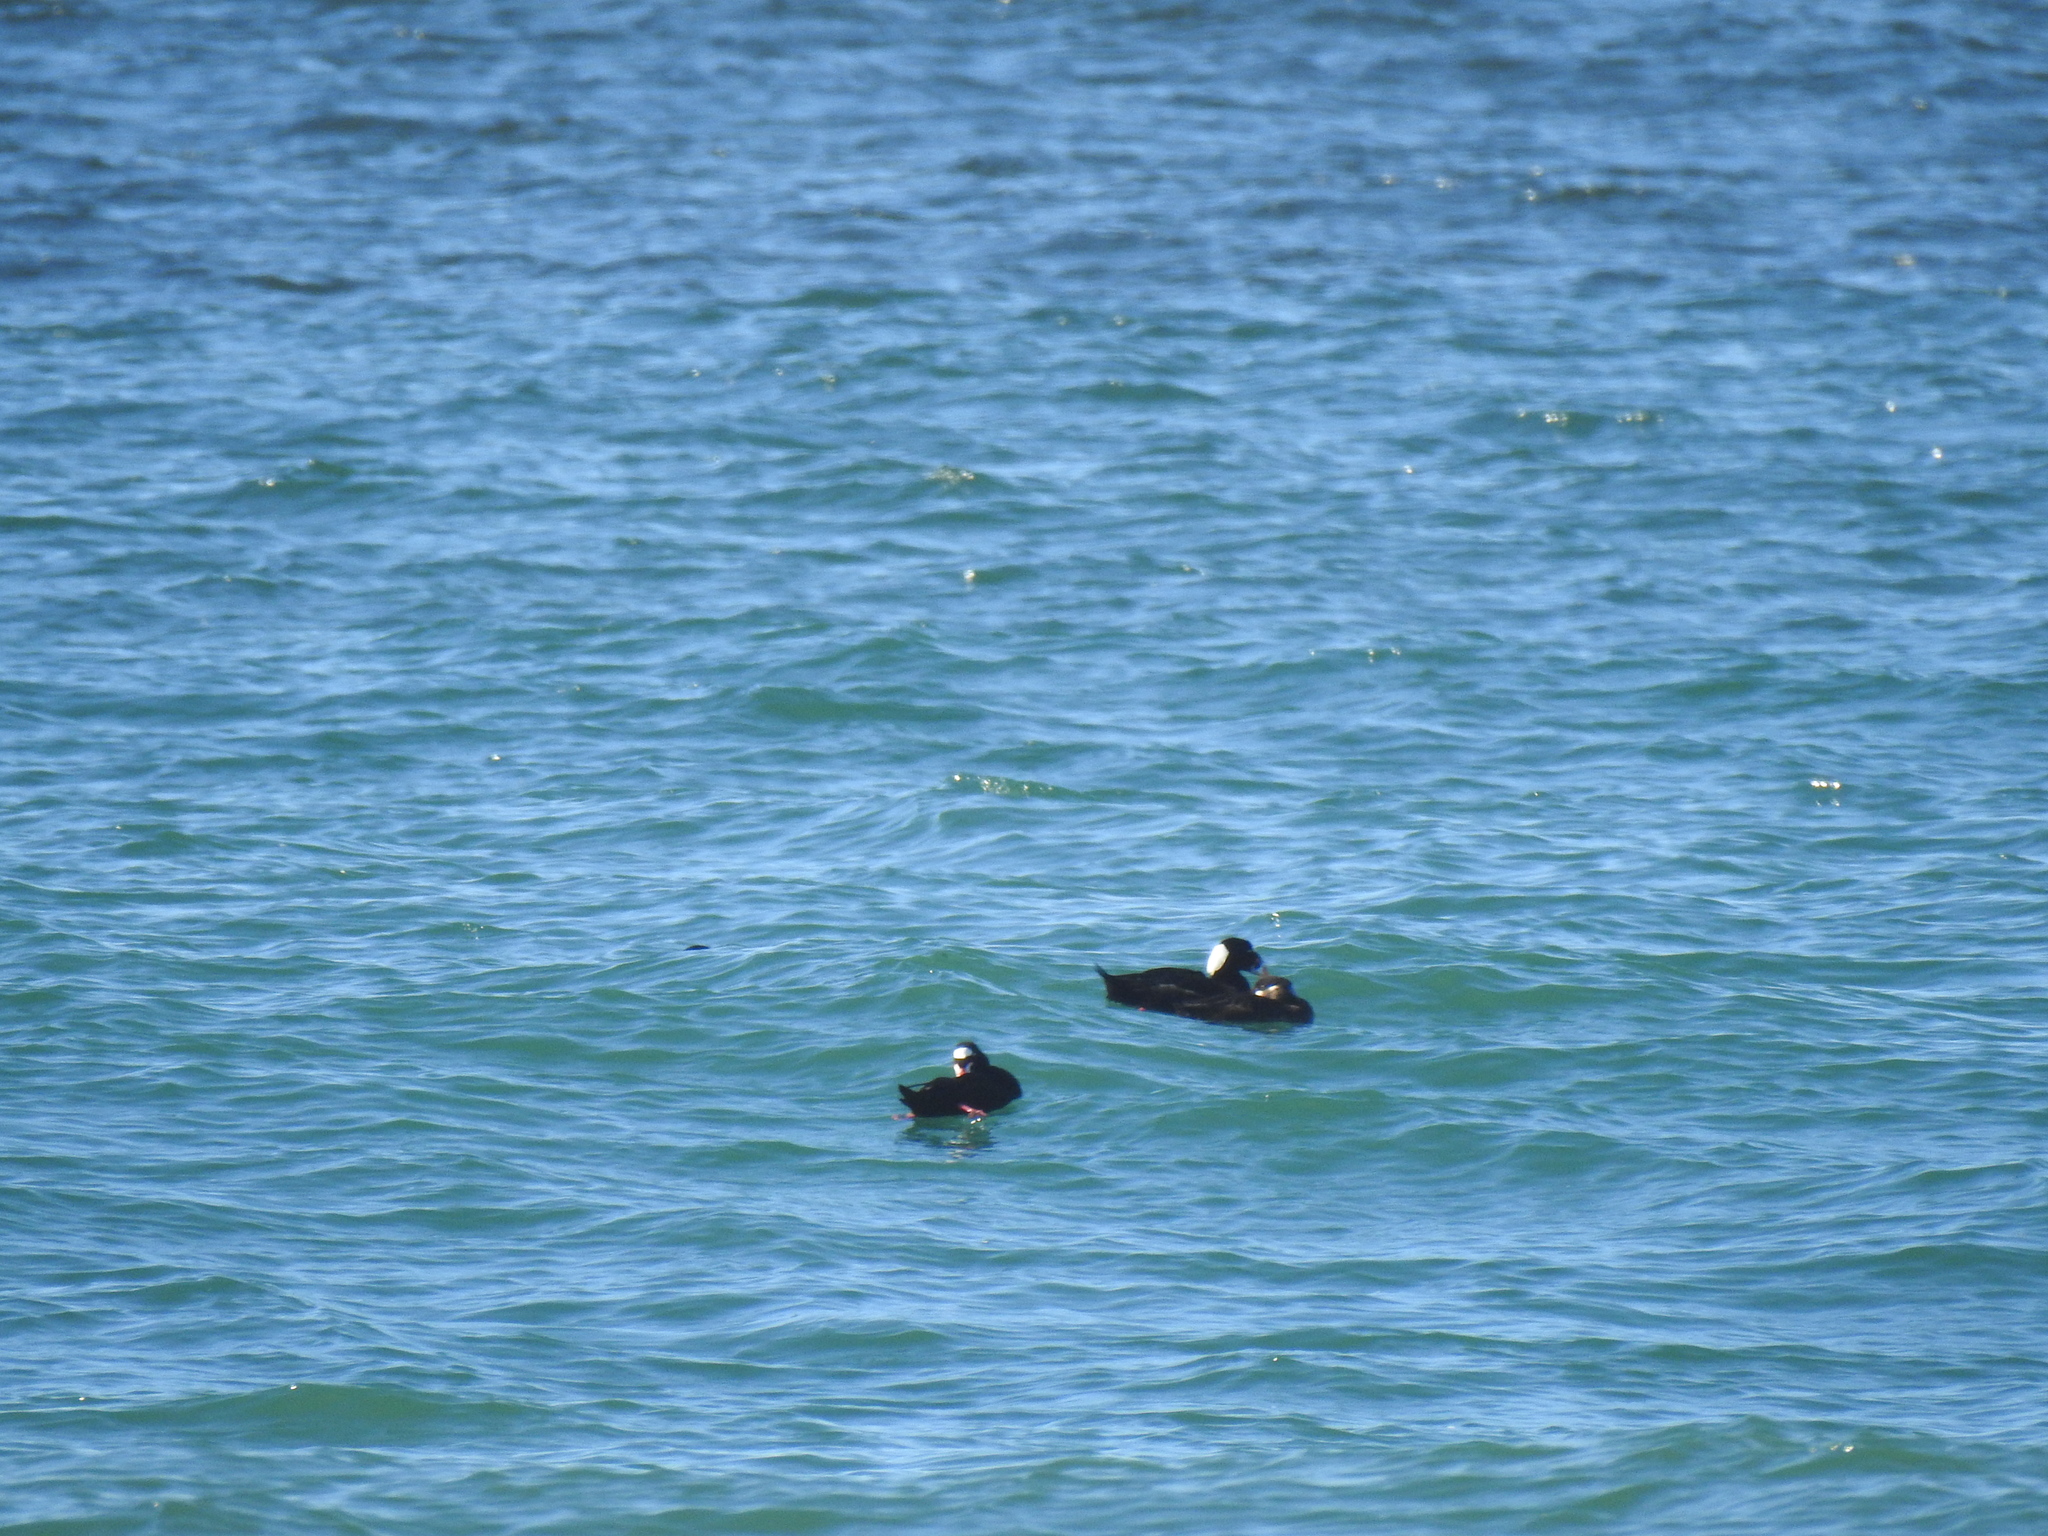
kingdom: Animalia
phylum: Chordata
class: Aves
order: Anseriformes
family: Anatidae
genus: Melanitta
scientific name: Melanitta perspicillata
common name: Surf scoter
